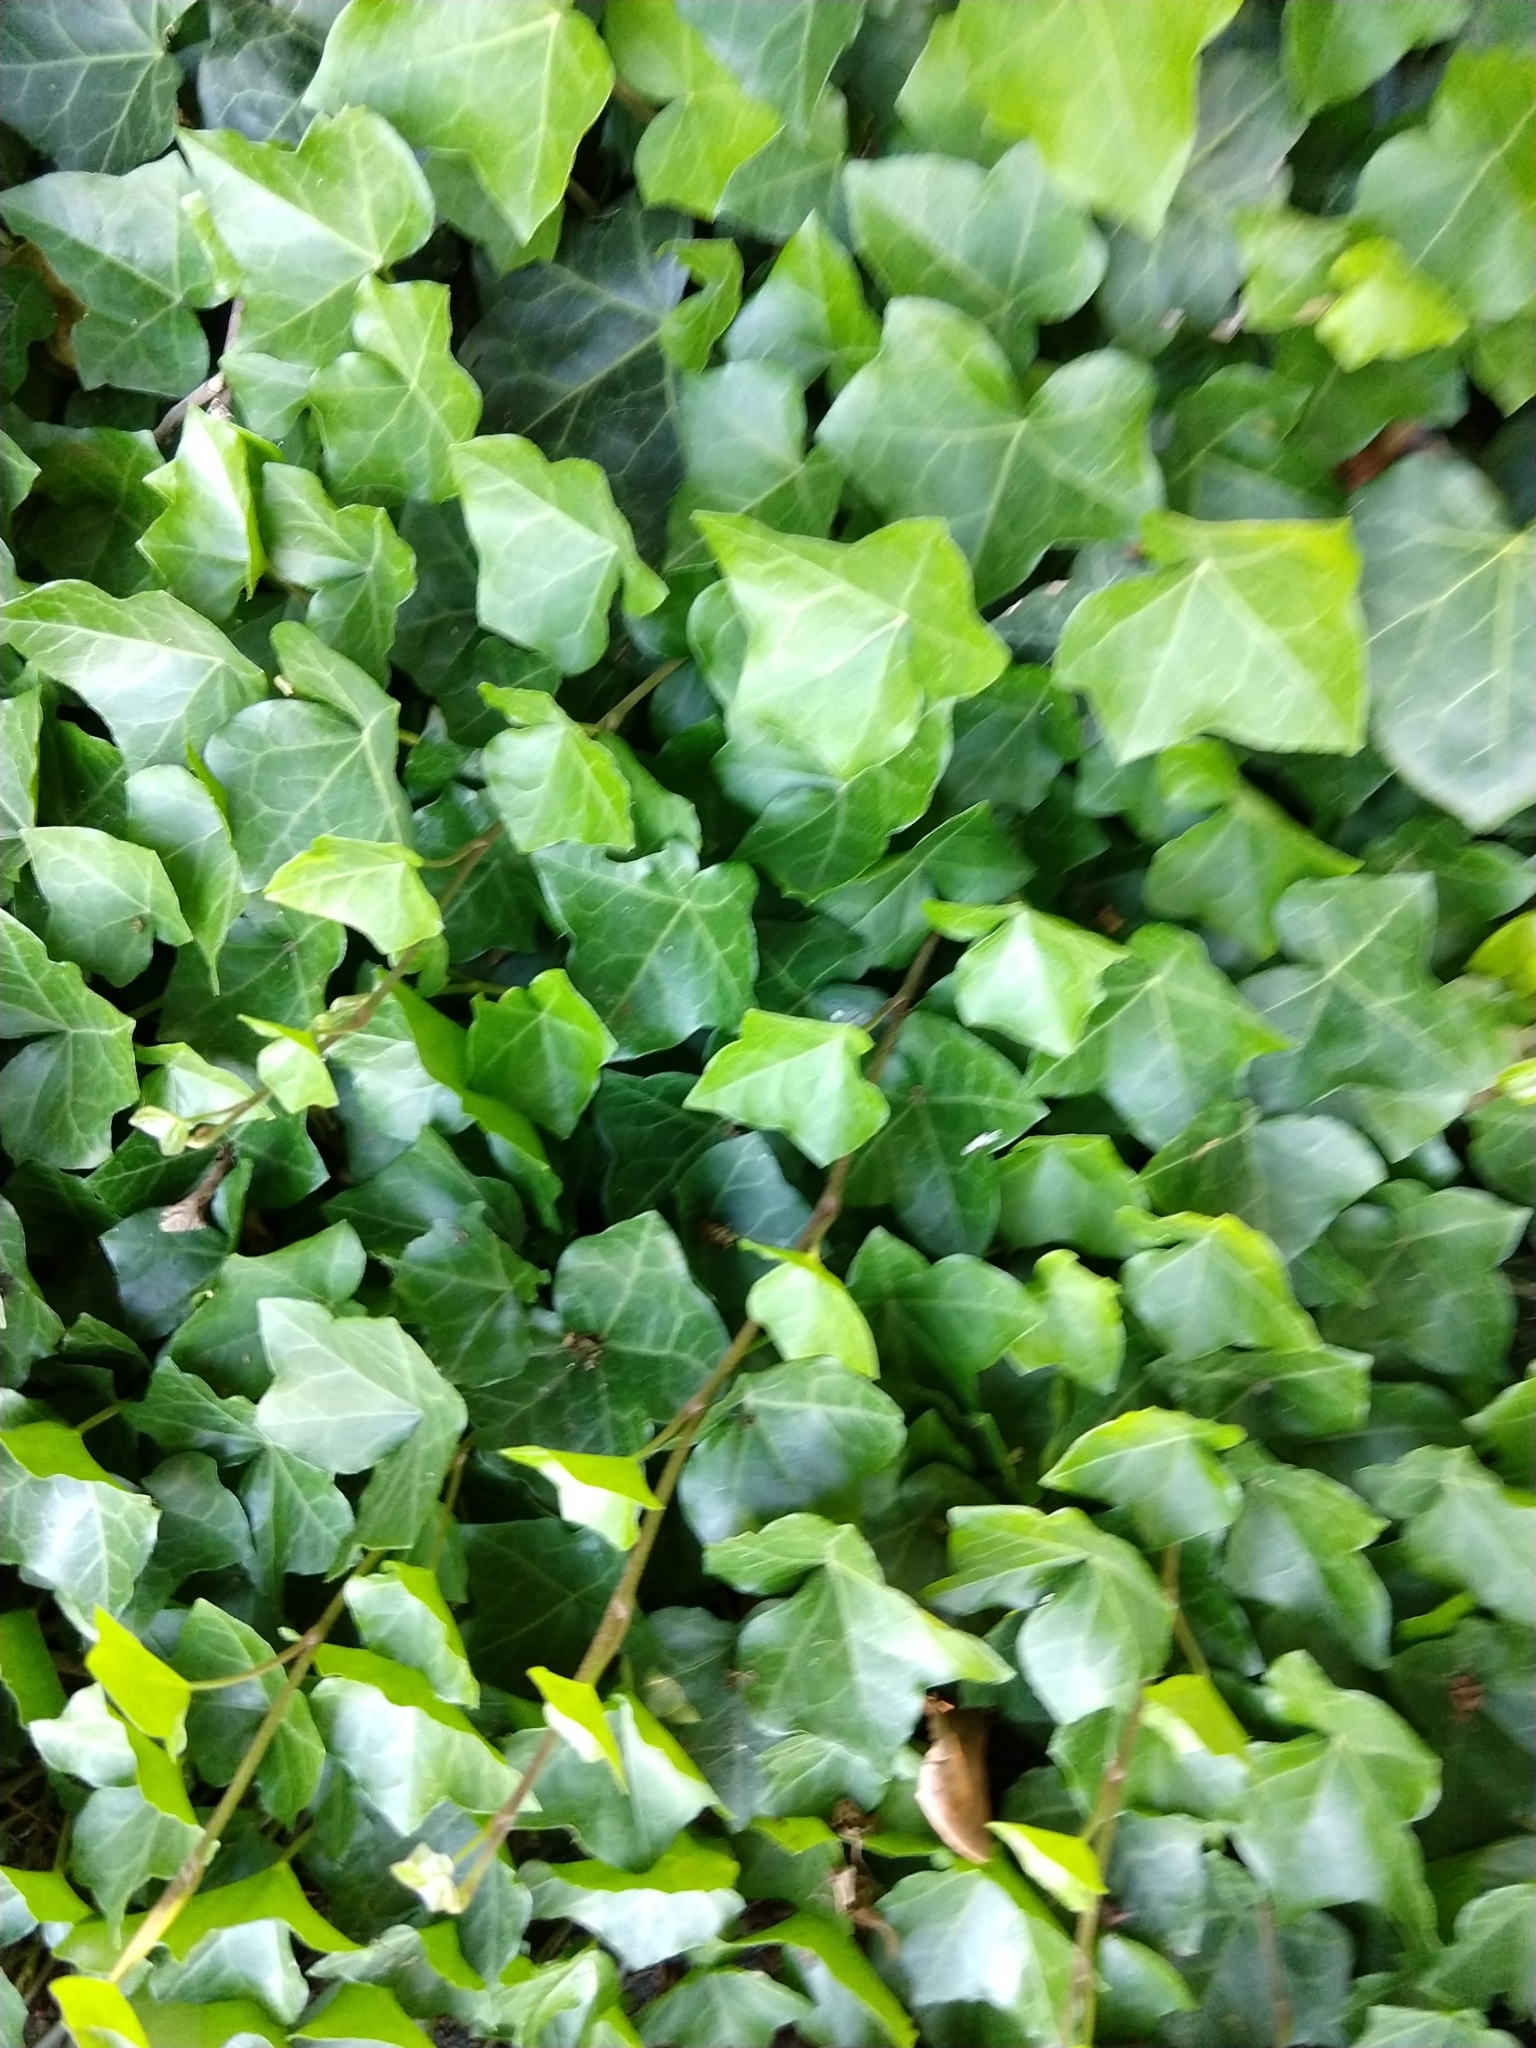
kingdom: Plantae
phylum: Tracheophyta
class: Magnoliopsida
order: Apiales
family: Araliaceae
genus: Hedera
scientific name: Hedera helix
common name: Ivy
